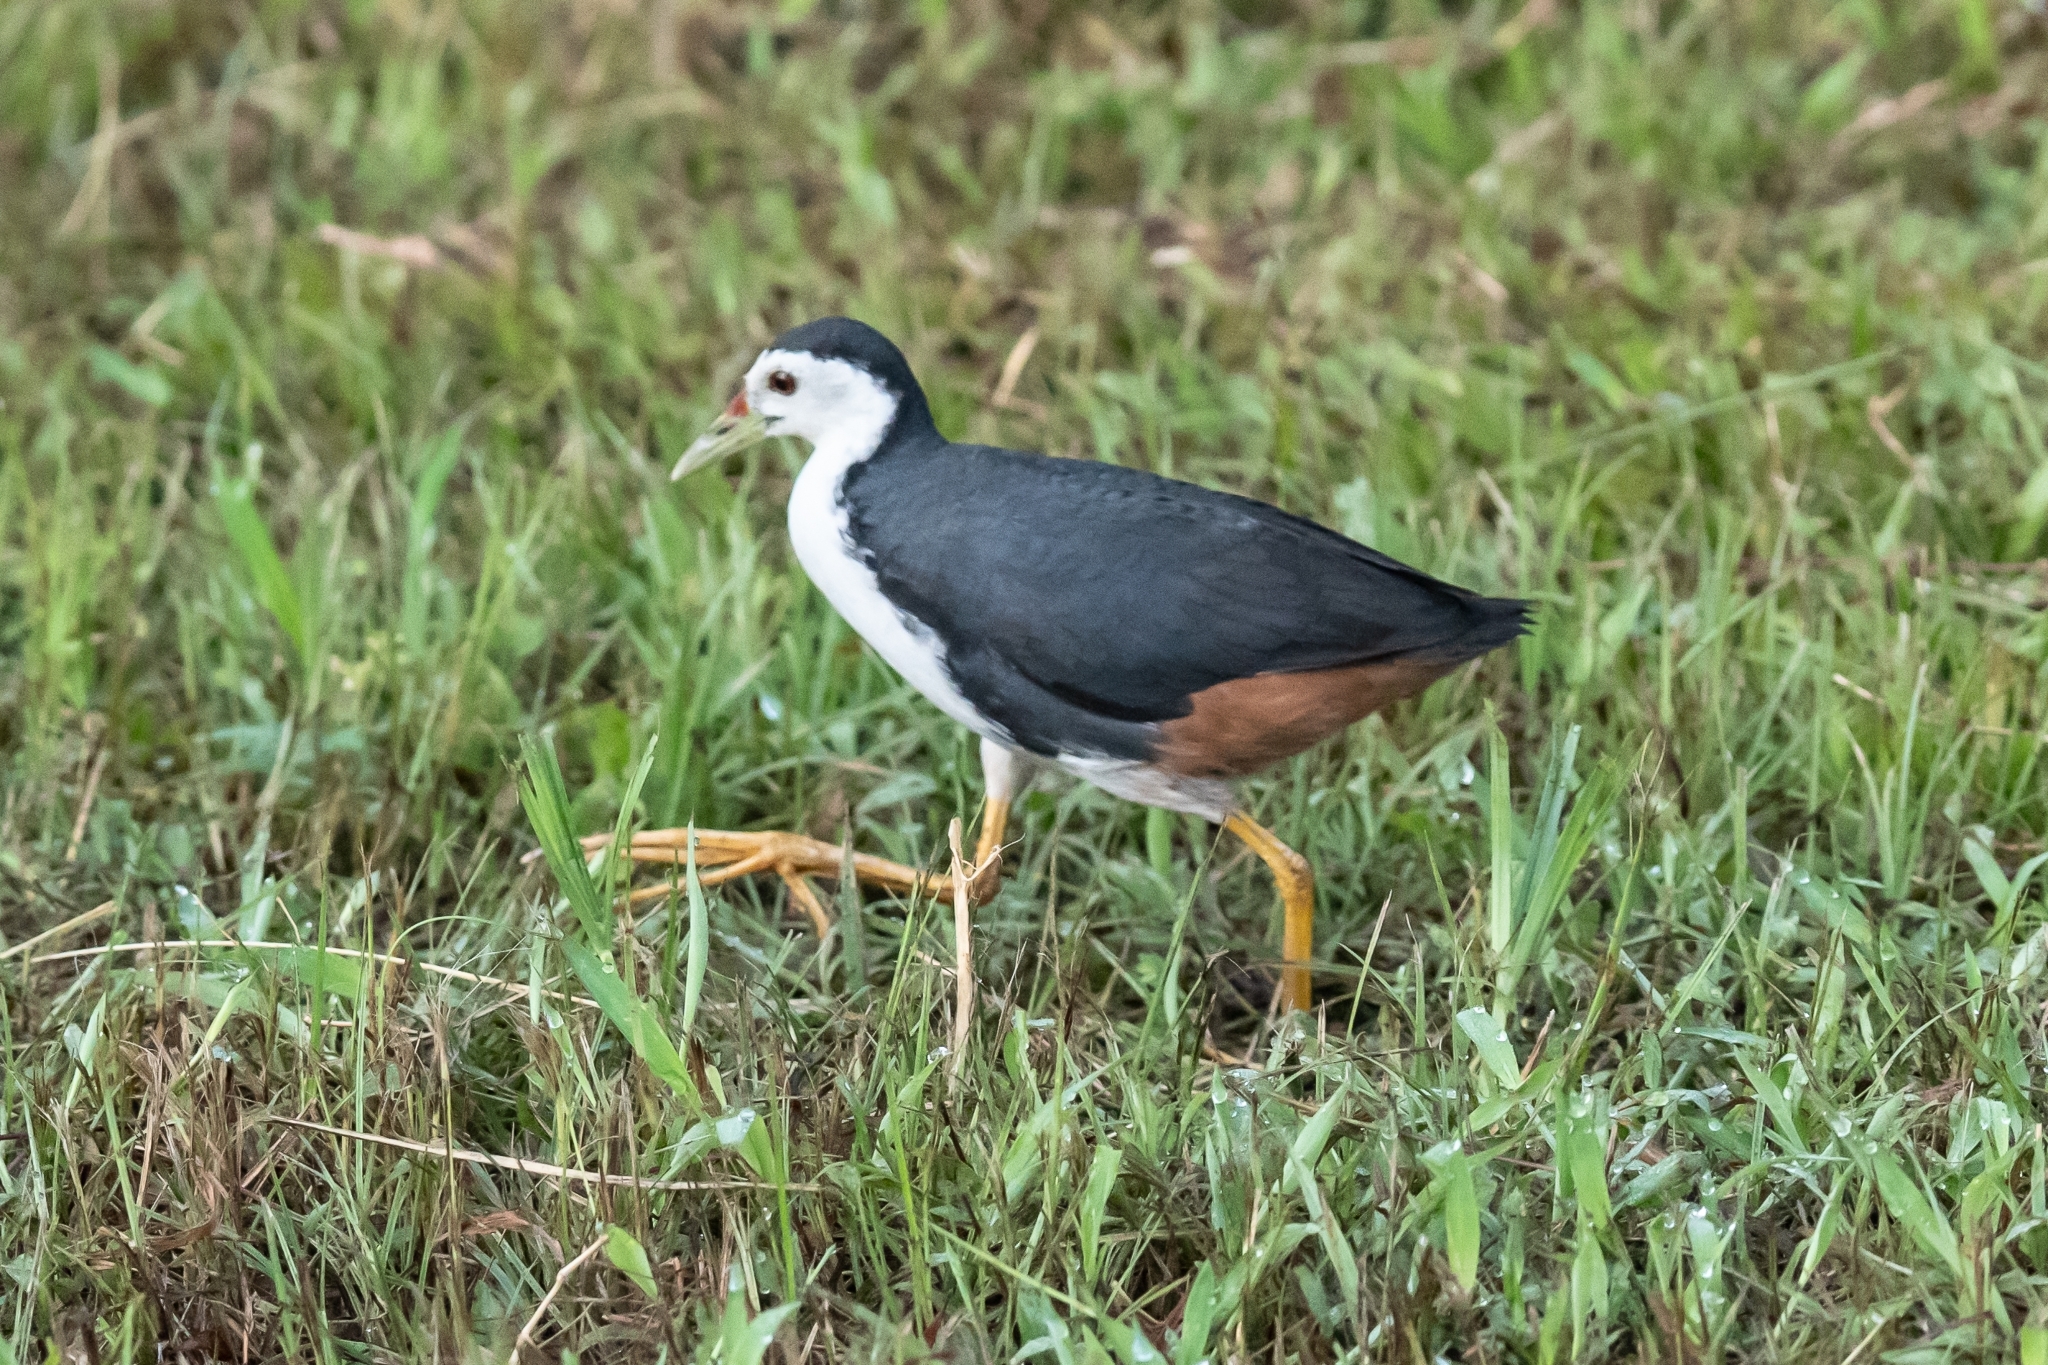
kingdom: Animalia
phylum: Chordata
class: Aves
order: Gruiformes
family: Rallidae
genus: Amaurornis
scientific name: Amaurornis phoenicurus
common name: White-breasted waterhen
